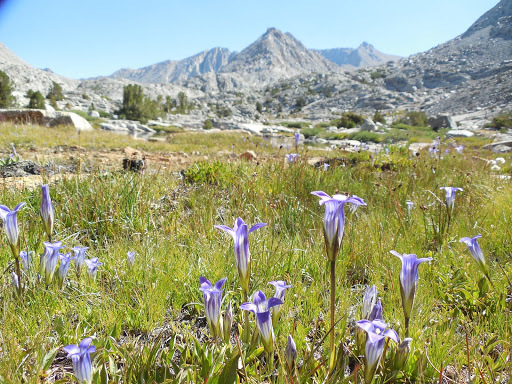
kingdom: Plantae
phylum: Tracheophyta
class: Magnoliopsida
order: Gentianales
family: Gentianaceae
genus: Gentianopsis
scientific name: Gentianopsis holopetala
